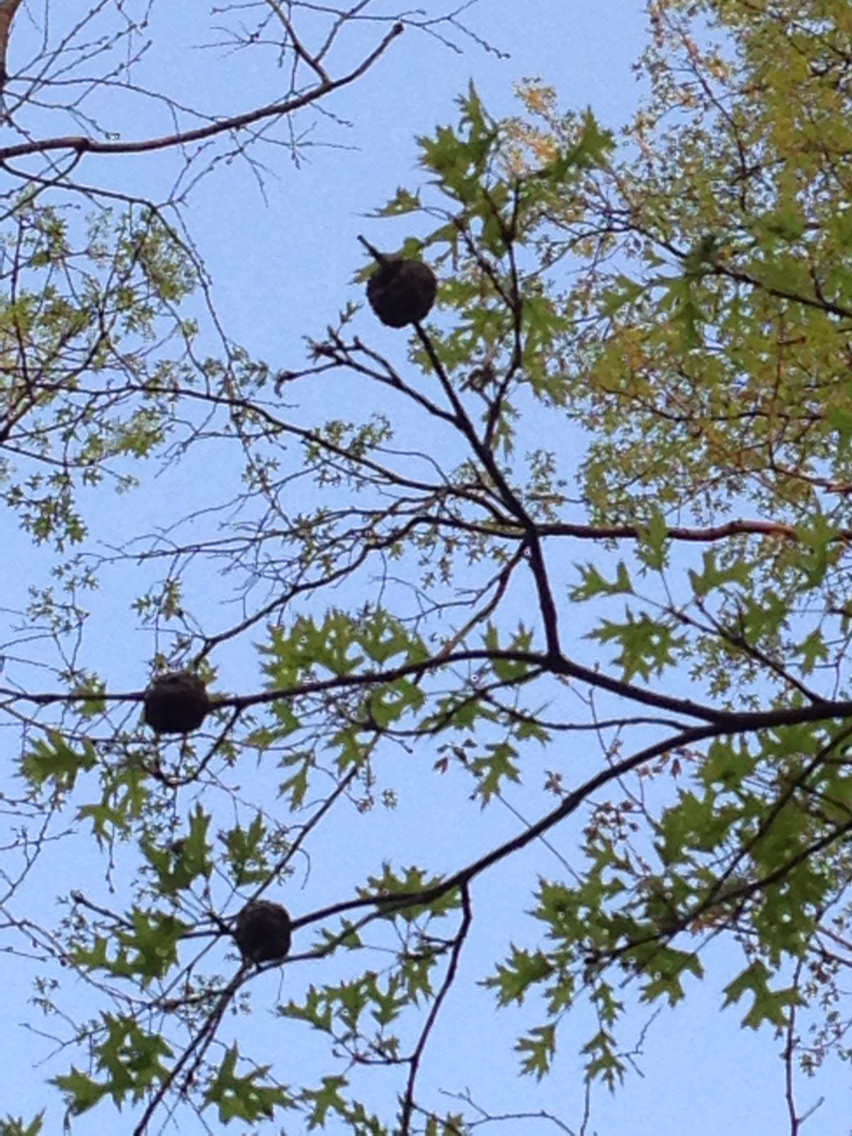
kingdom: Animalia
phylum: Arthropoda
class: Insecta
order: Hymenoptera
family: Cynipidae
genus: Callirhytis
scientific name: Callirhytis
